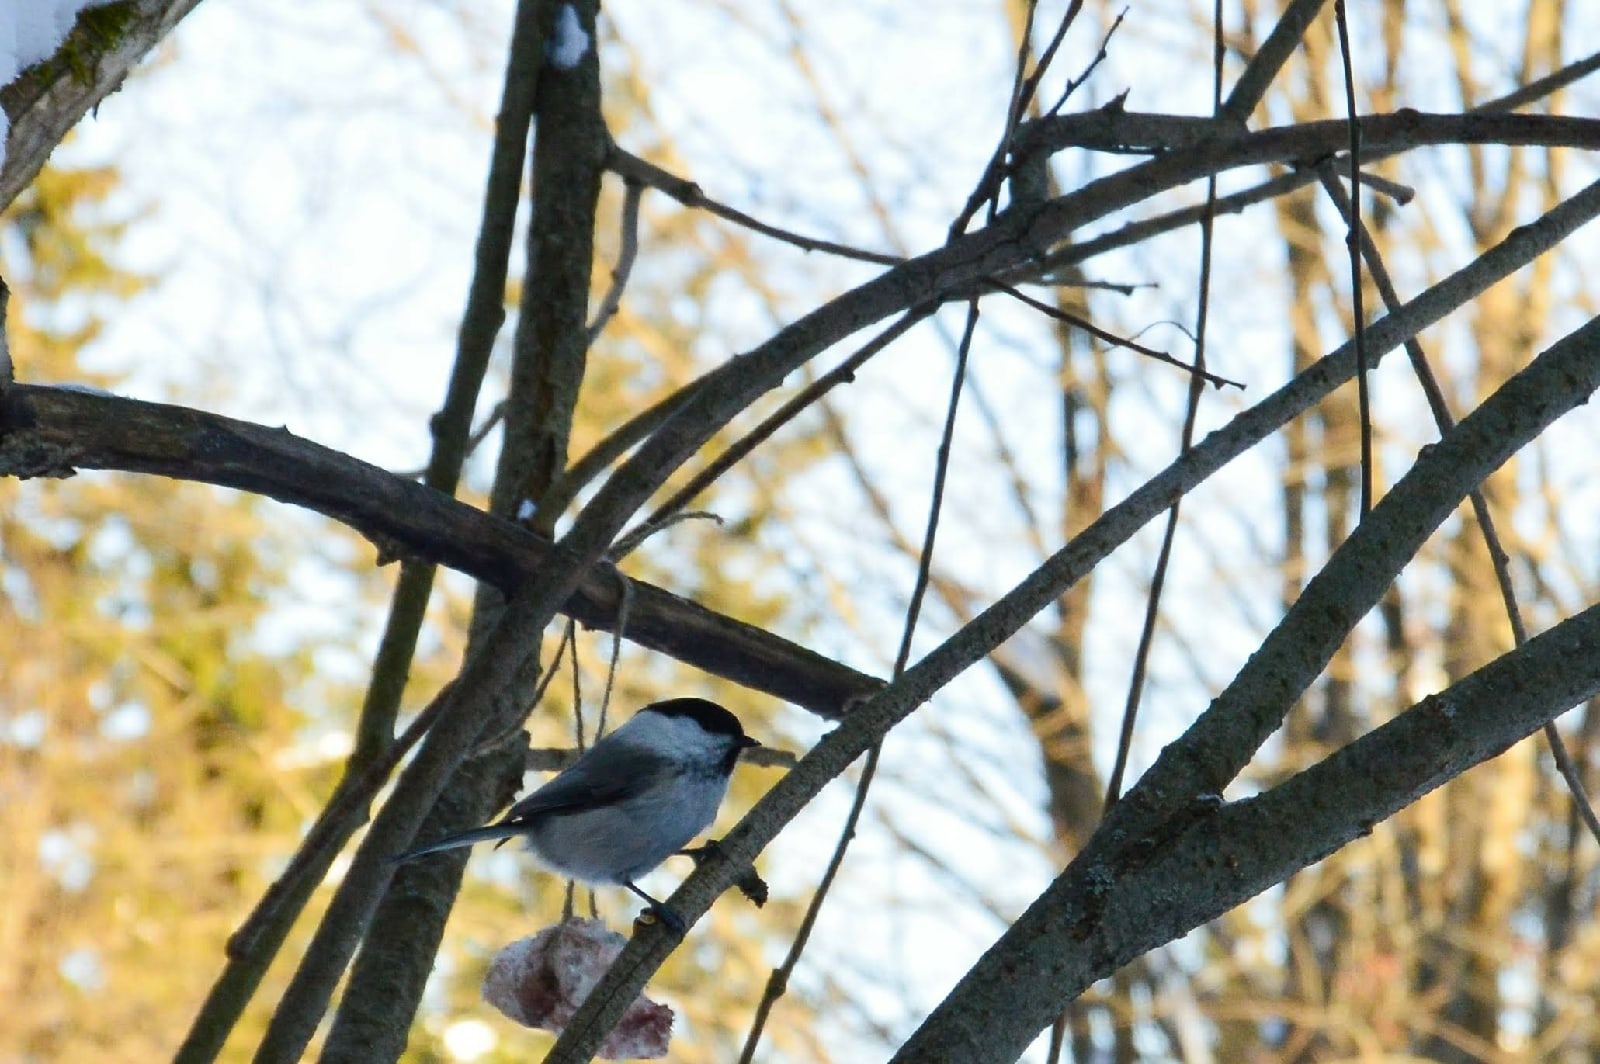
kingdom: Animalia
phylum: Chordata
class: Aves
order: Passeriformes
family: Paridae
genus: Poecile
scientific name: Poecile montanus
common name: Willow tit
